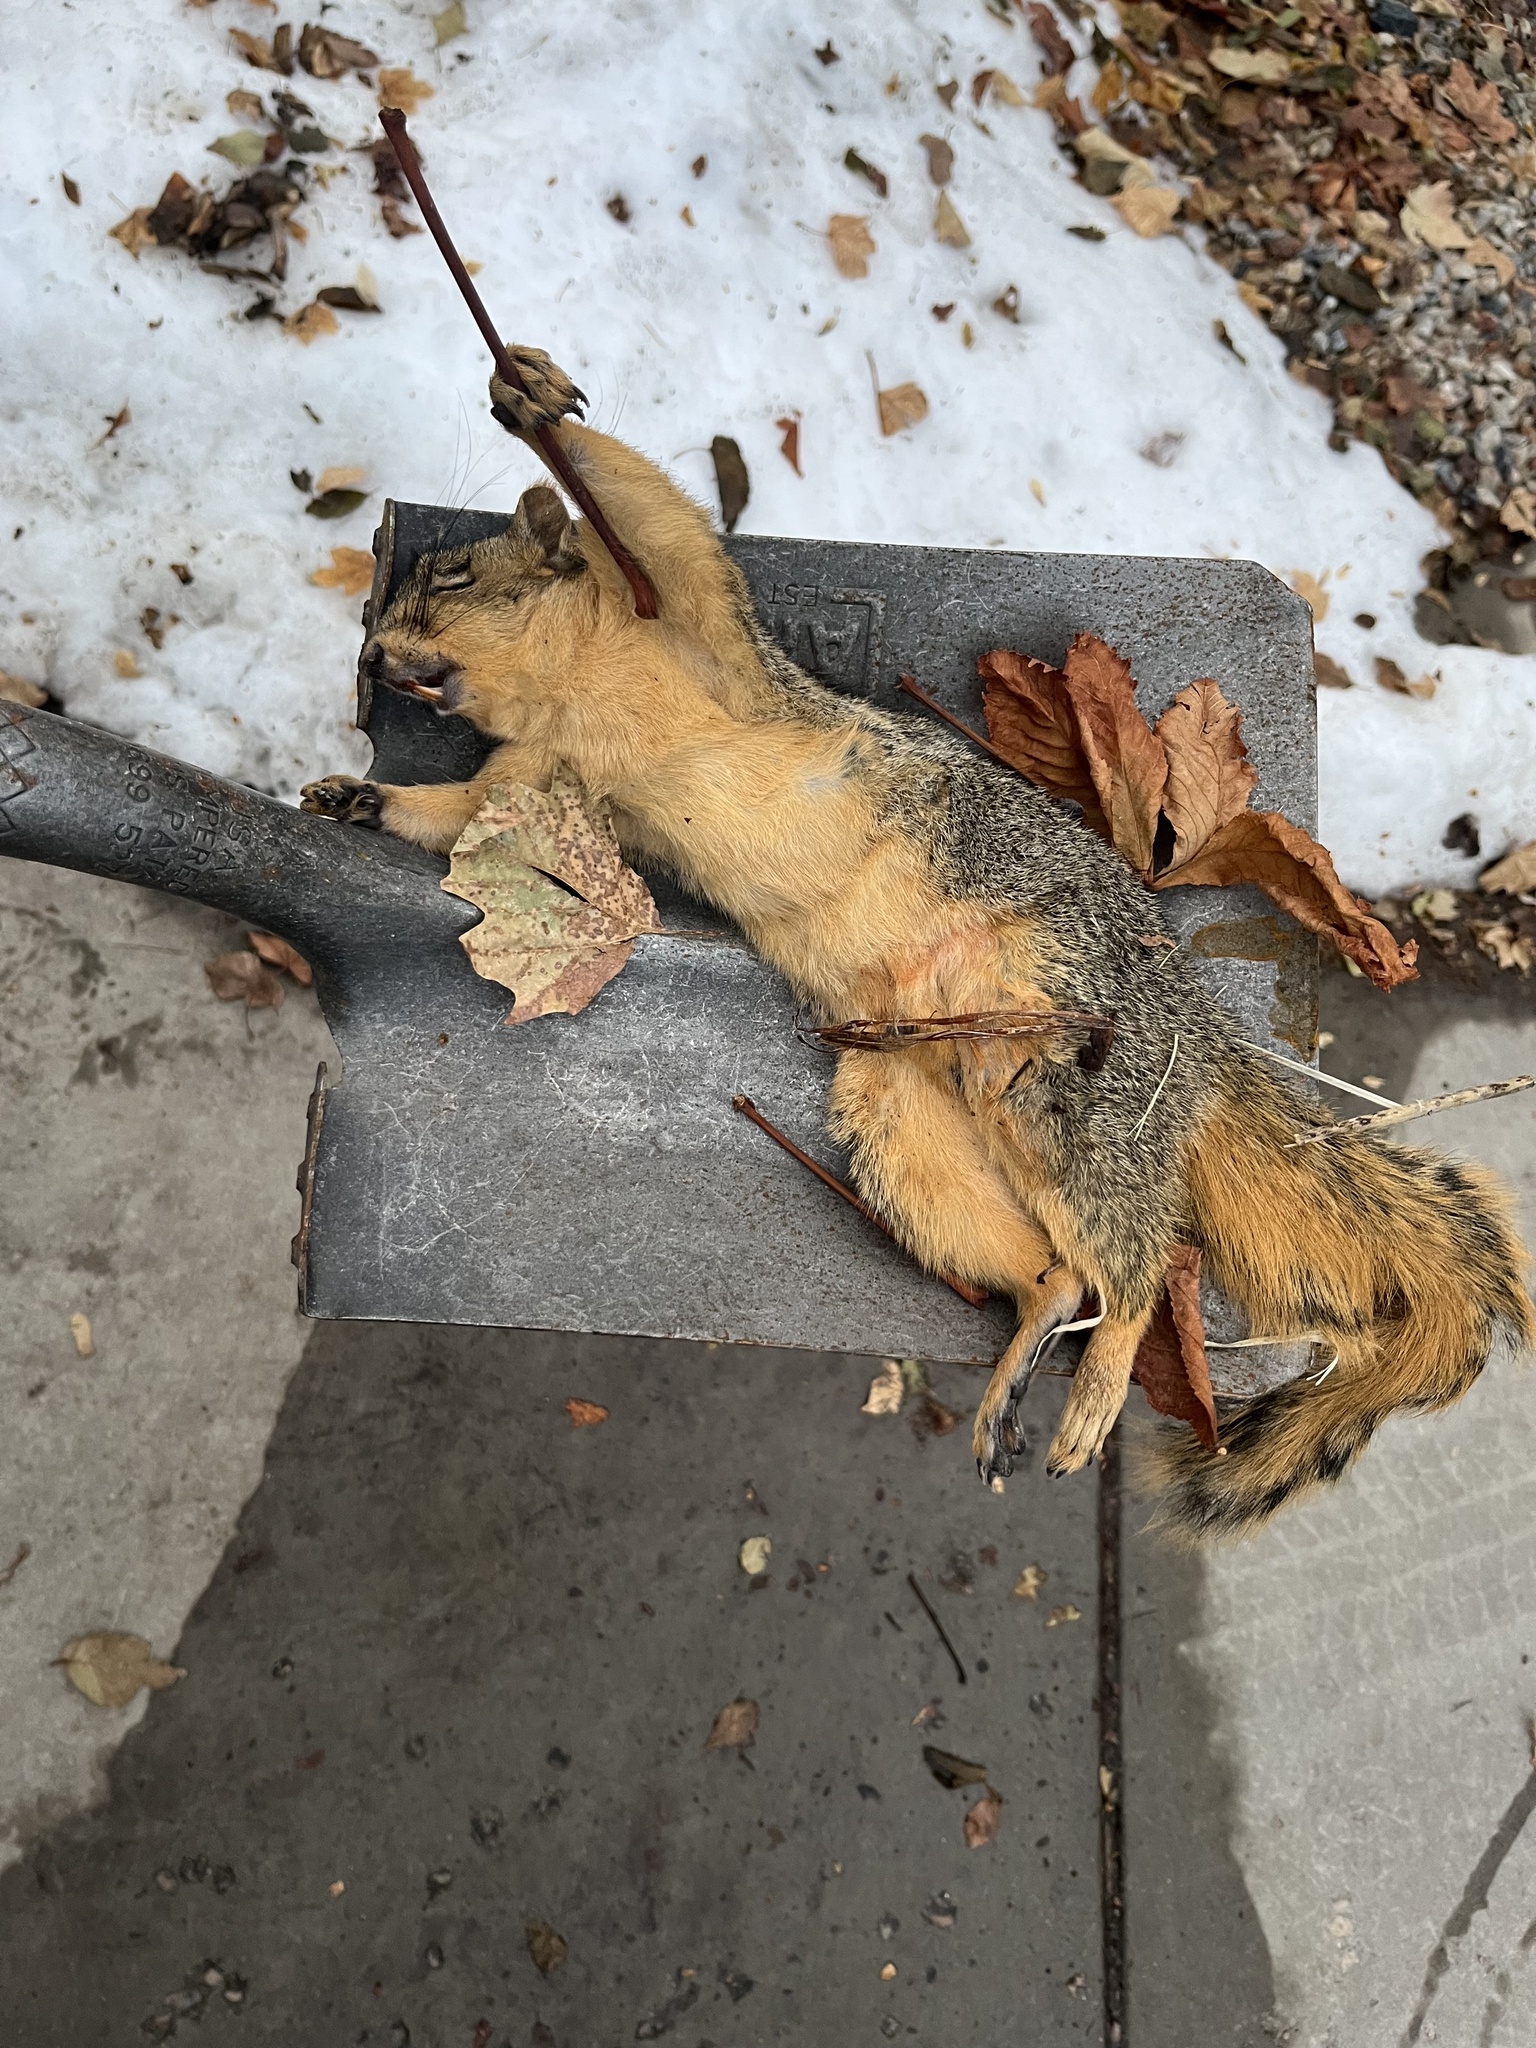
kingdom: Animalia
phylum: Chordata
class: Mammalia
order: Rodentia
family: Sciuridae
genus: Sciurus
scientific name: Sciurus niger
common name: Fox squirrel
